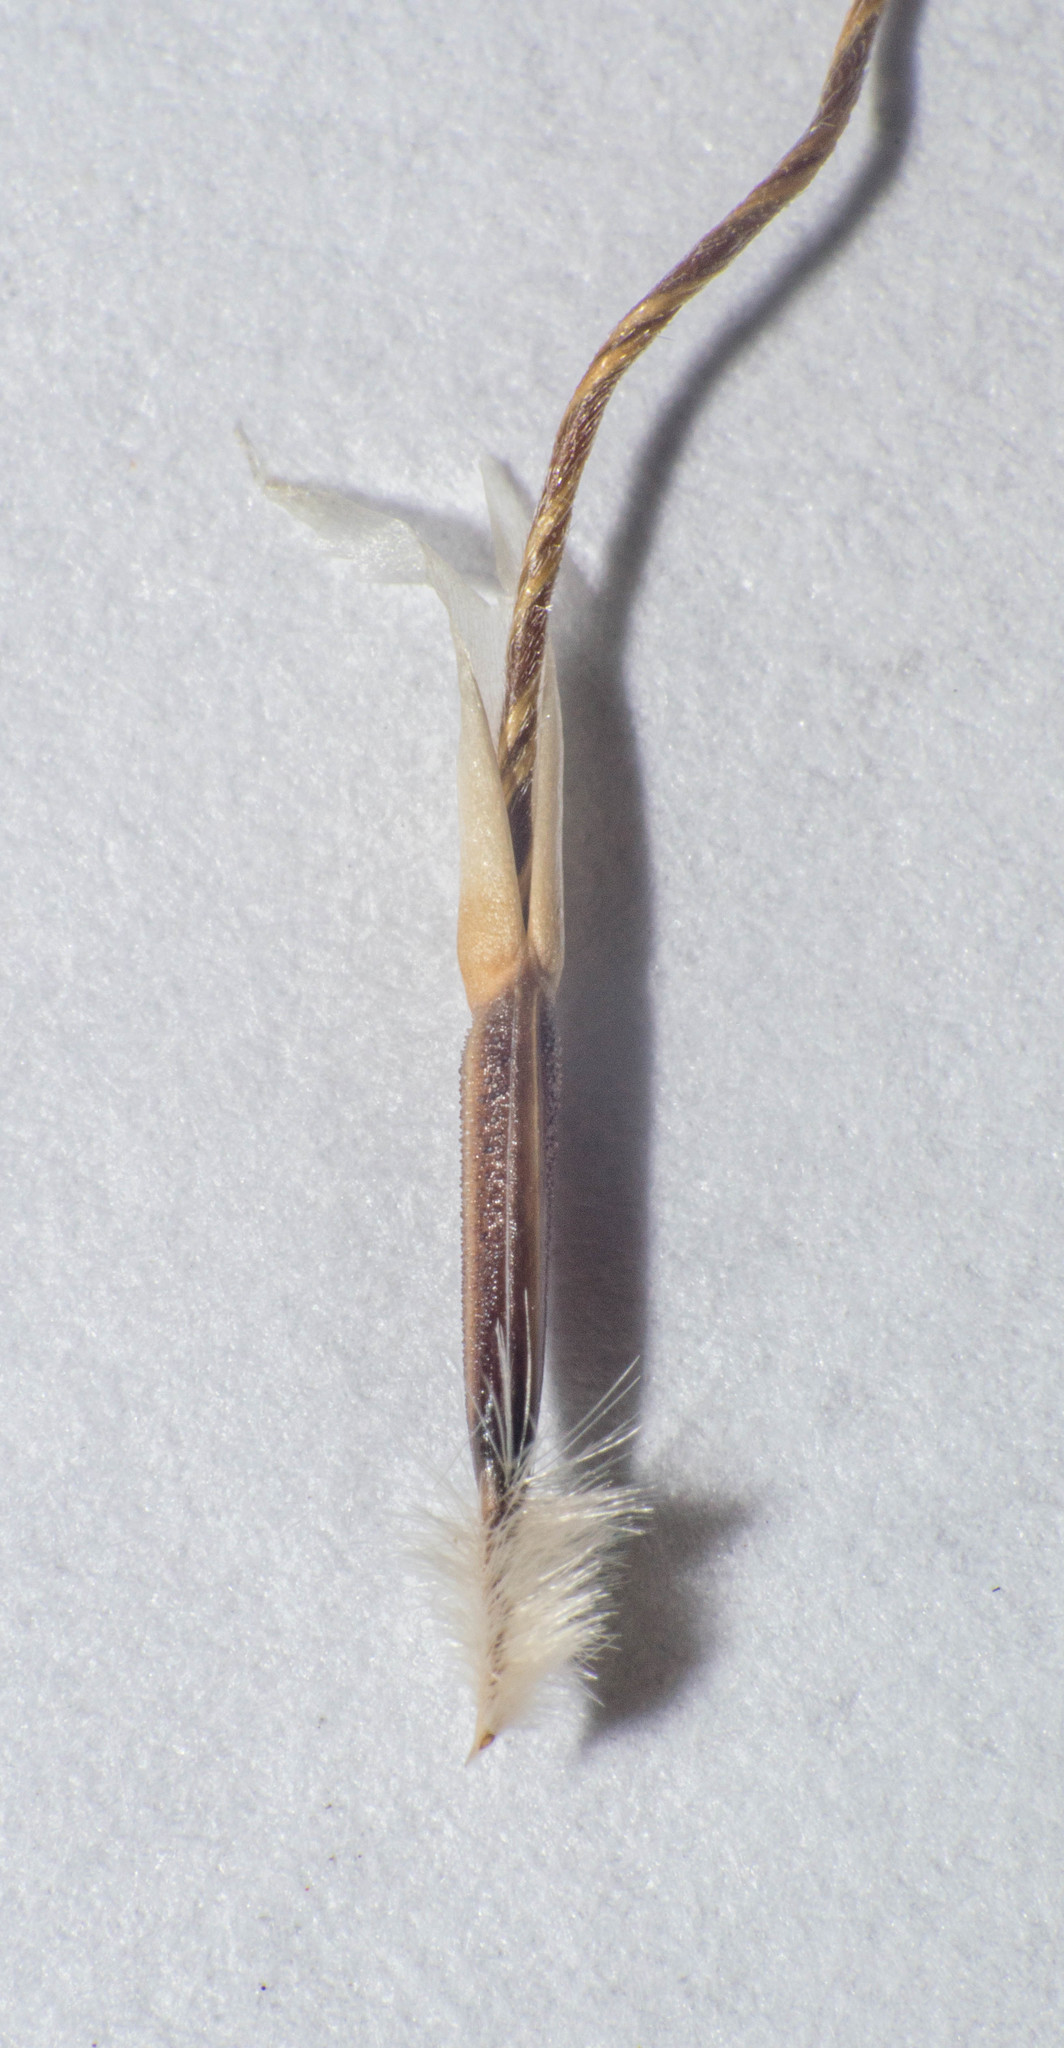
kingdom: Plantae
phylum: Tracheophyta
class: Liliopsida
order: Poales
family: Poaceae
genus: Nassella
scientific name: Nassella charruana
